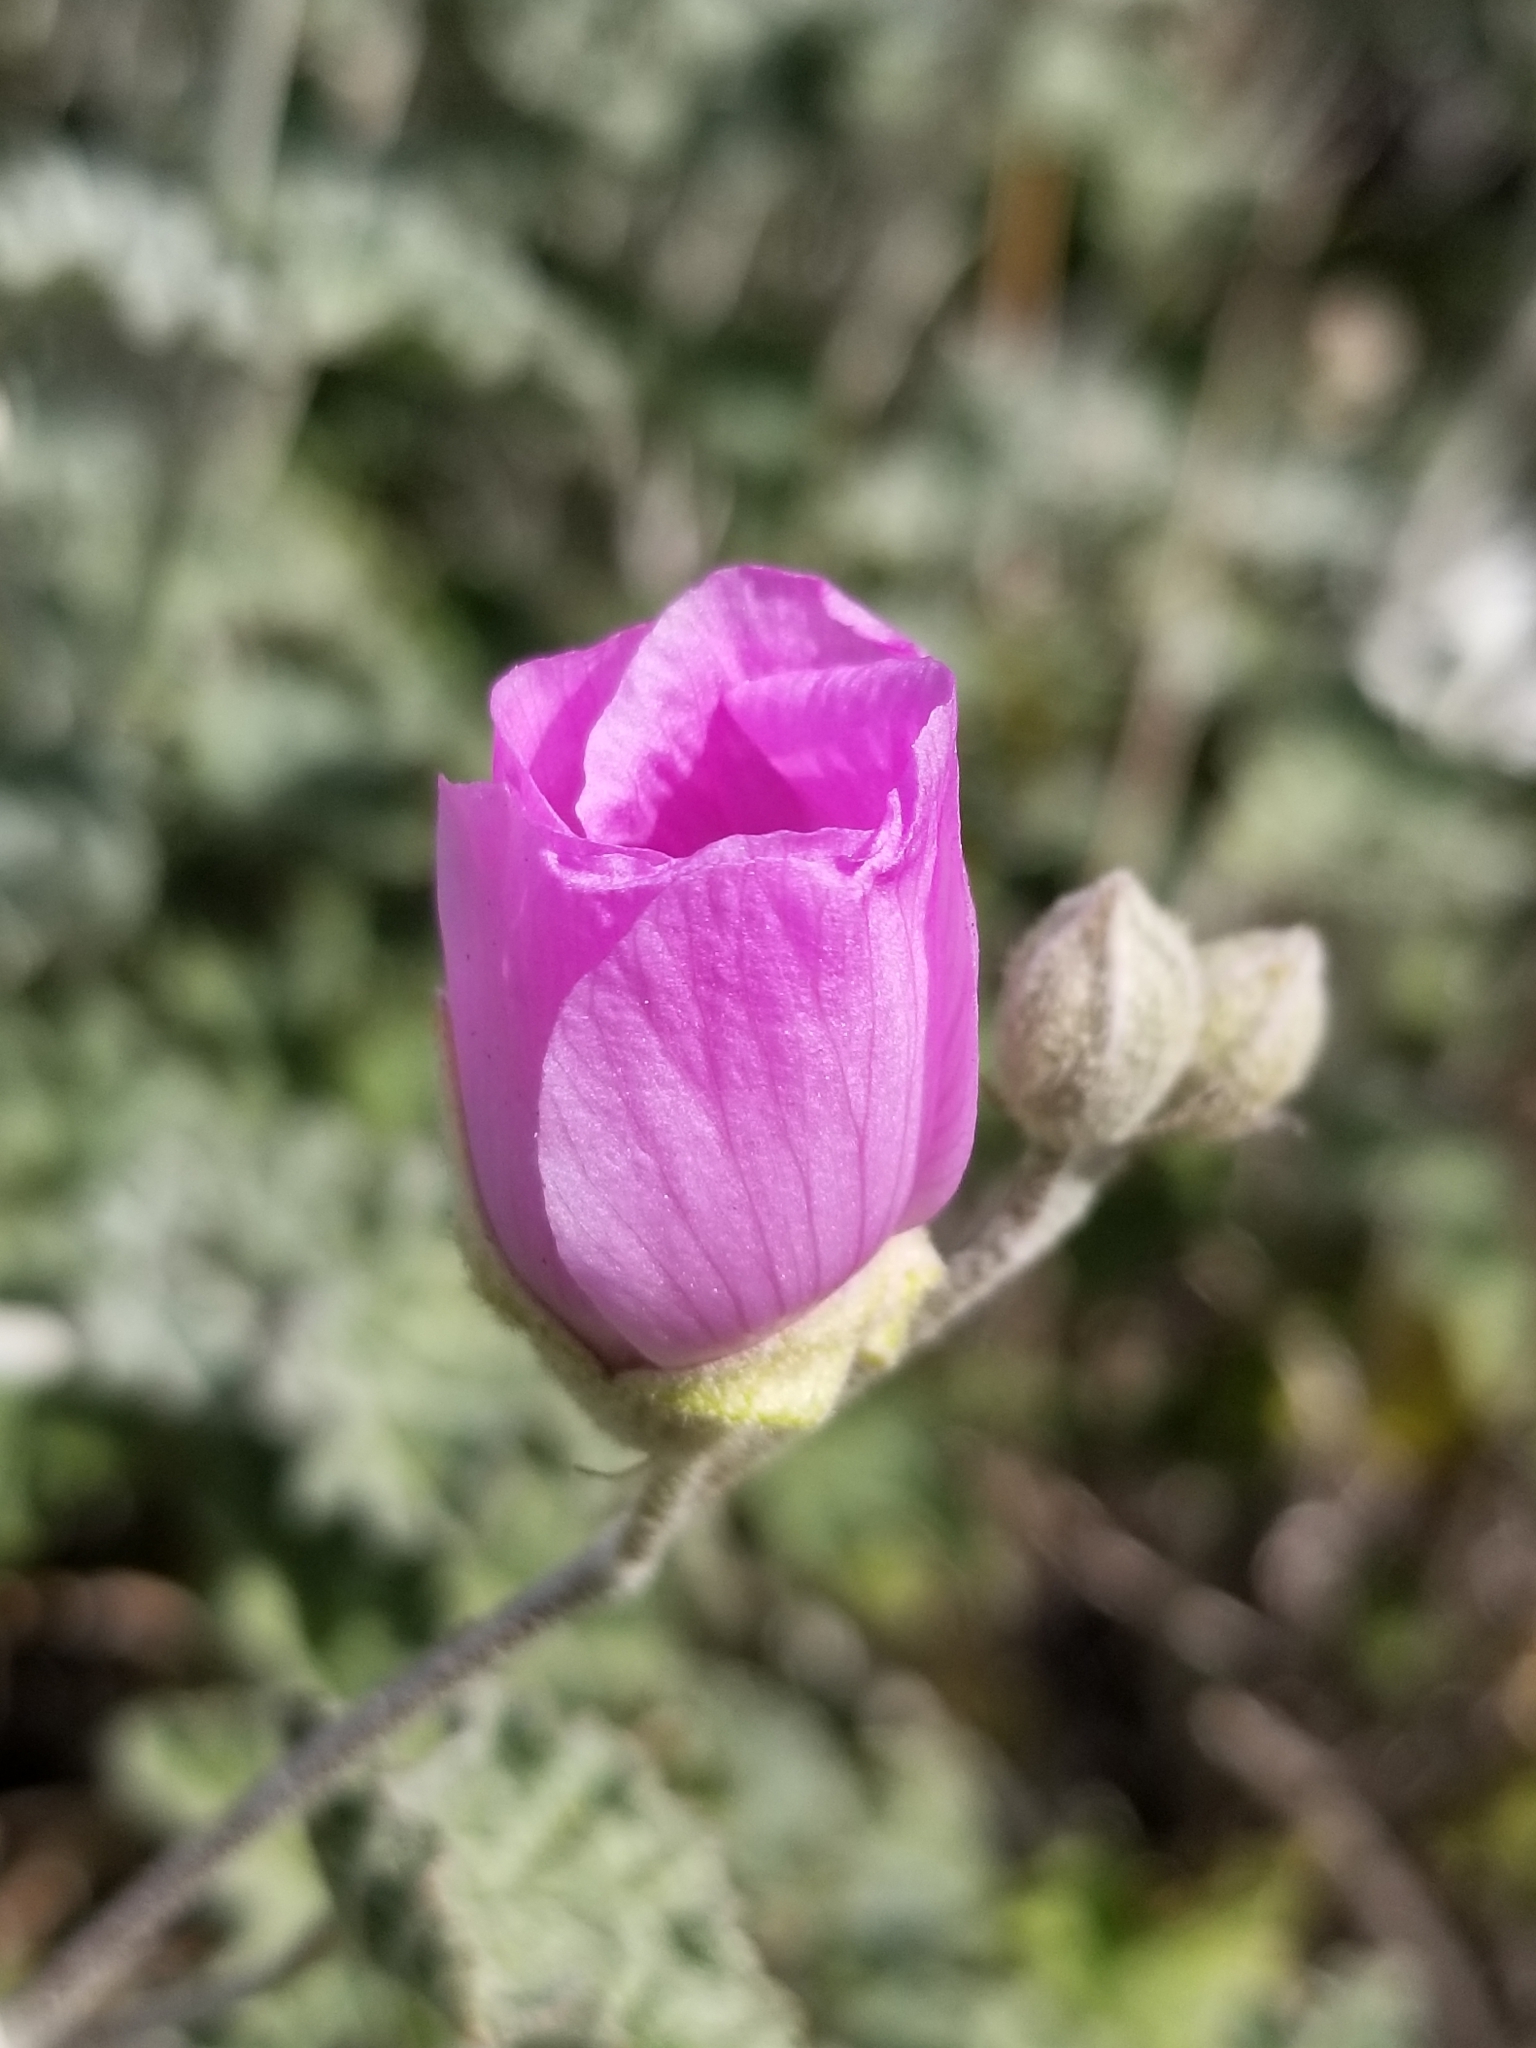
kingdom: Plantae
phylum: Tracheophyta
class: Magnoliopsida
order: Malvales
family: Malvaceae
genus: Sphaeralcea
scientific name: Sphaeralcea ambigua
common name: Apricot globe-mallow
